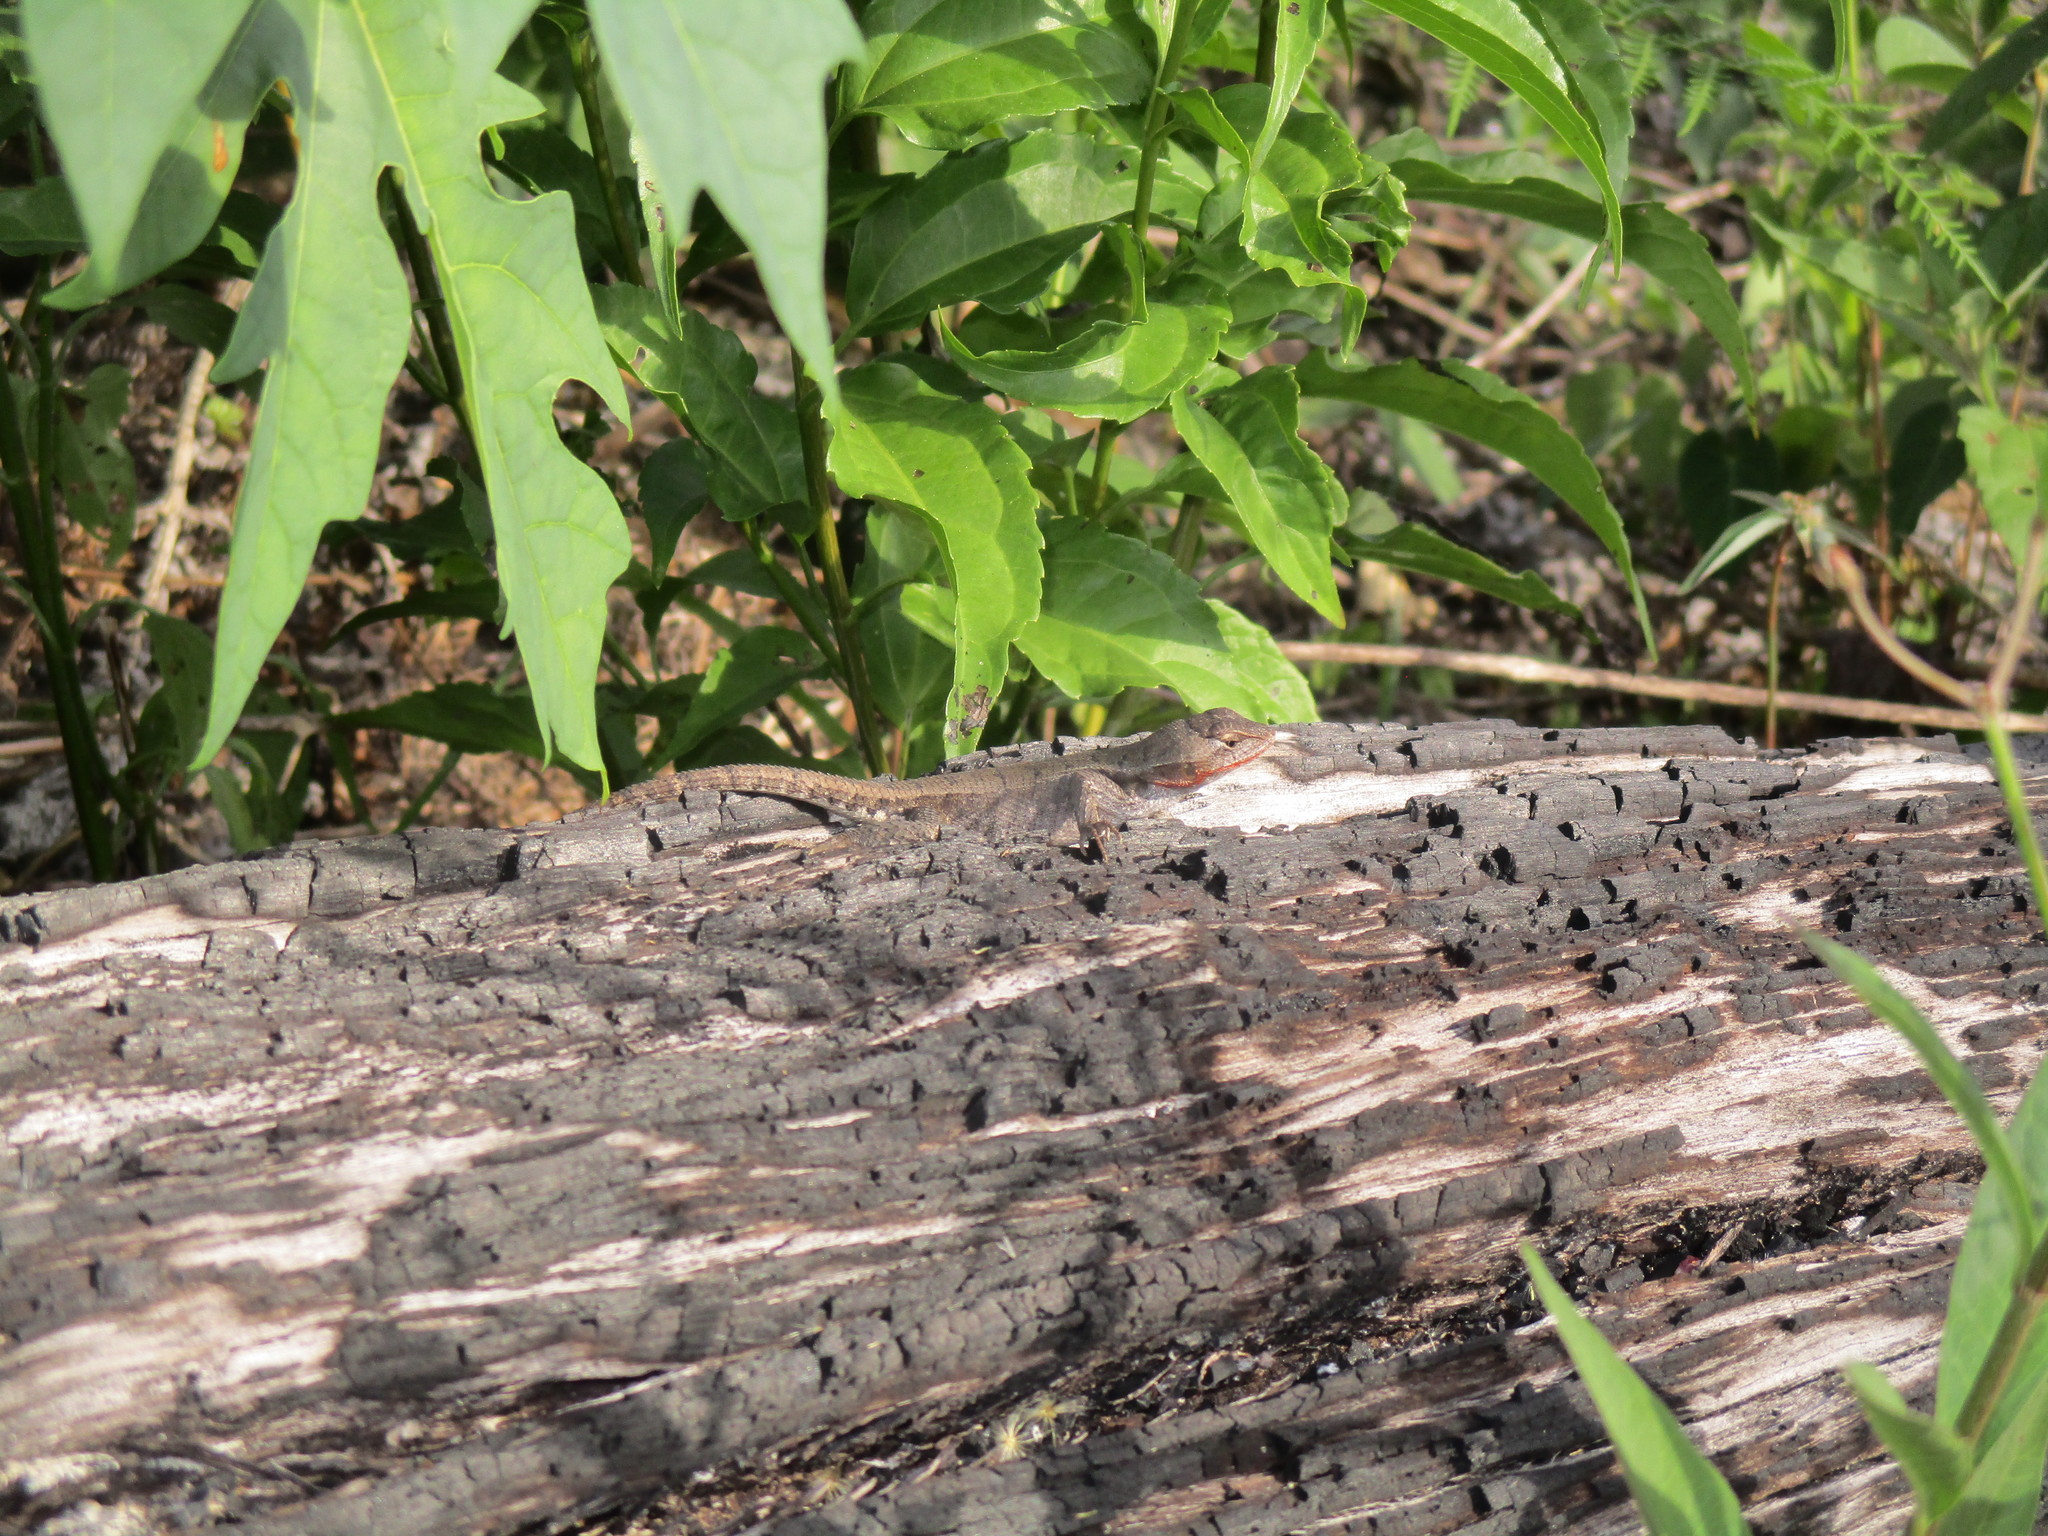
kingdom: Animalia
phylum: Chordata
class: Squamata
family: Phrynosomatidae
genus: Sceloporus
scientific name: Sceloporus chrysostictus
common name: Yellow-spotted spiny lizard
